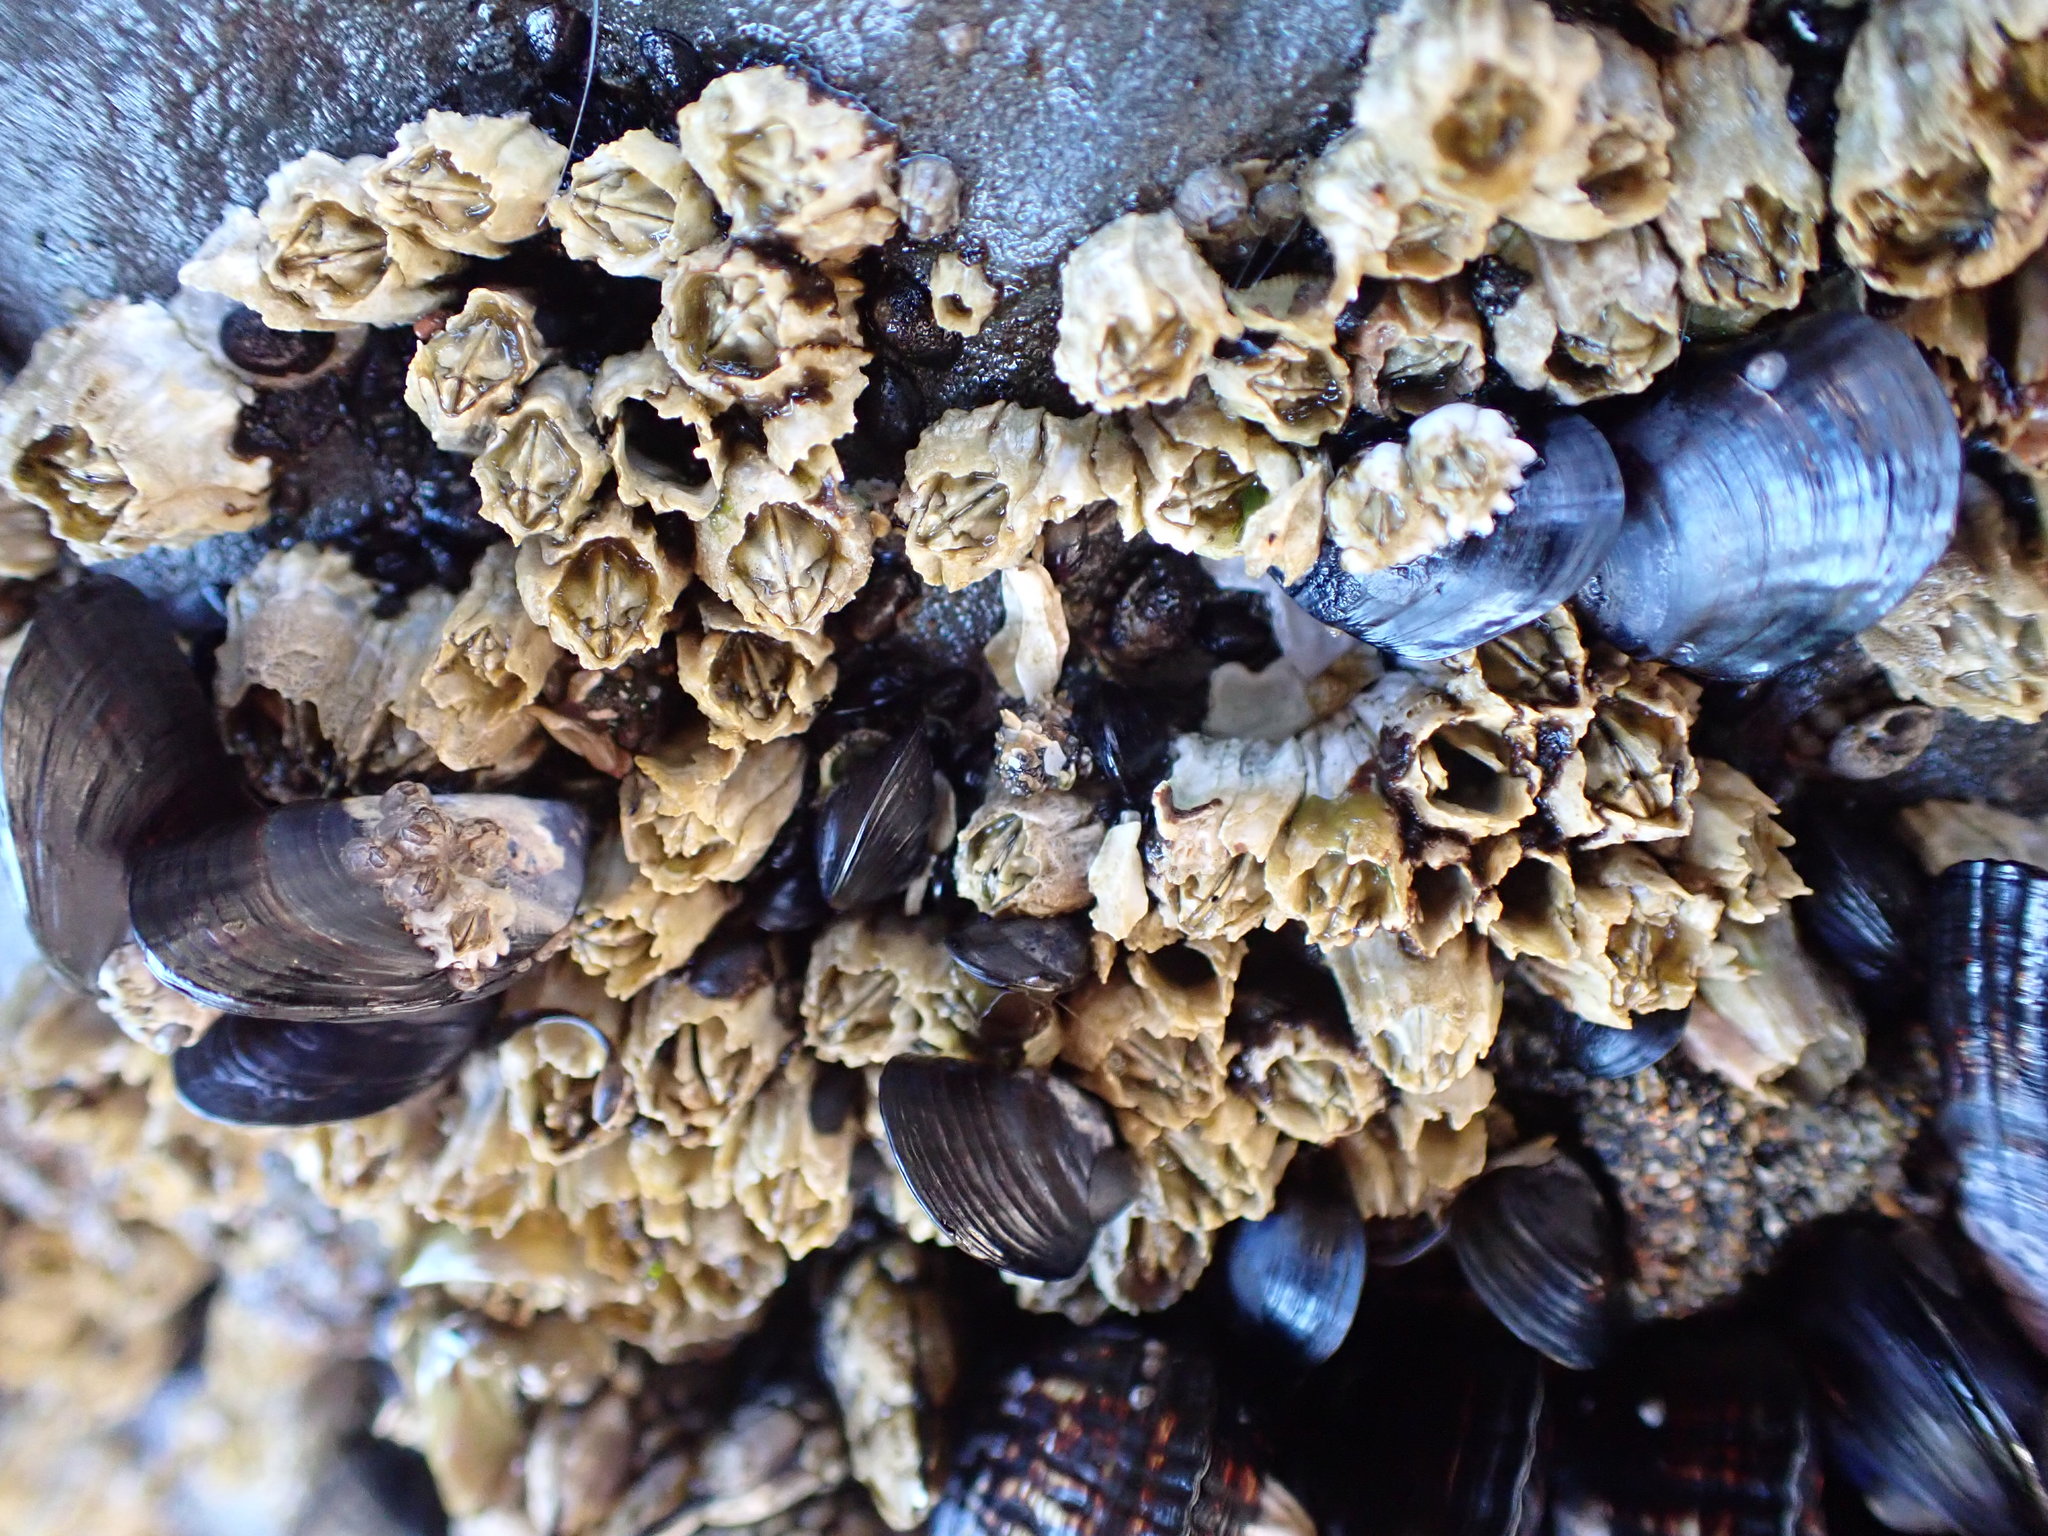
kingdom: Animalia
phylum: Arthropoda
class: Maxillopoda
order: Sessilia
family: Balanidae
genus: Balanus
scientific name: Balanus glandula
